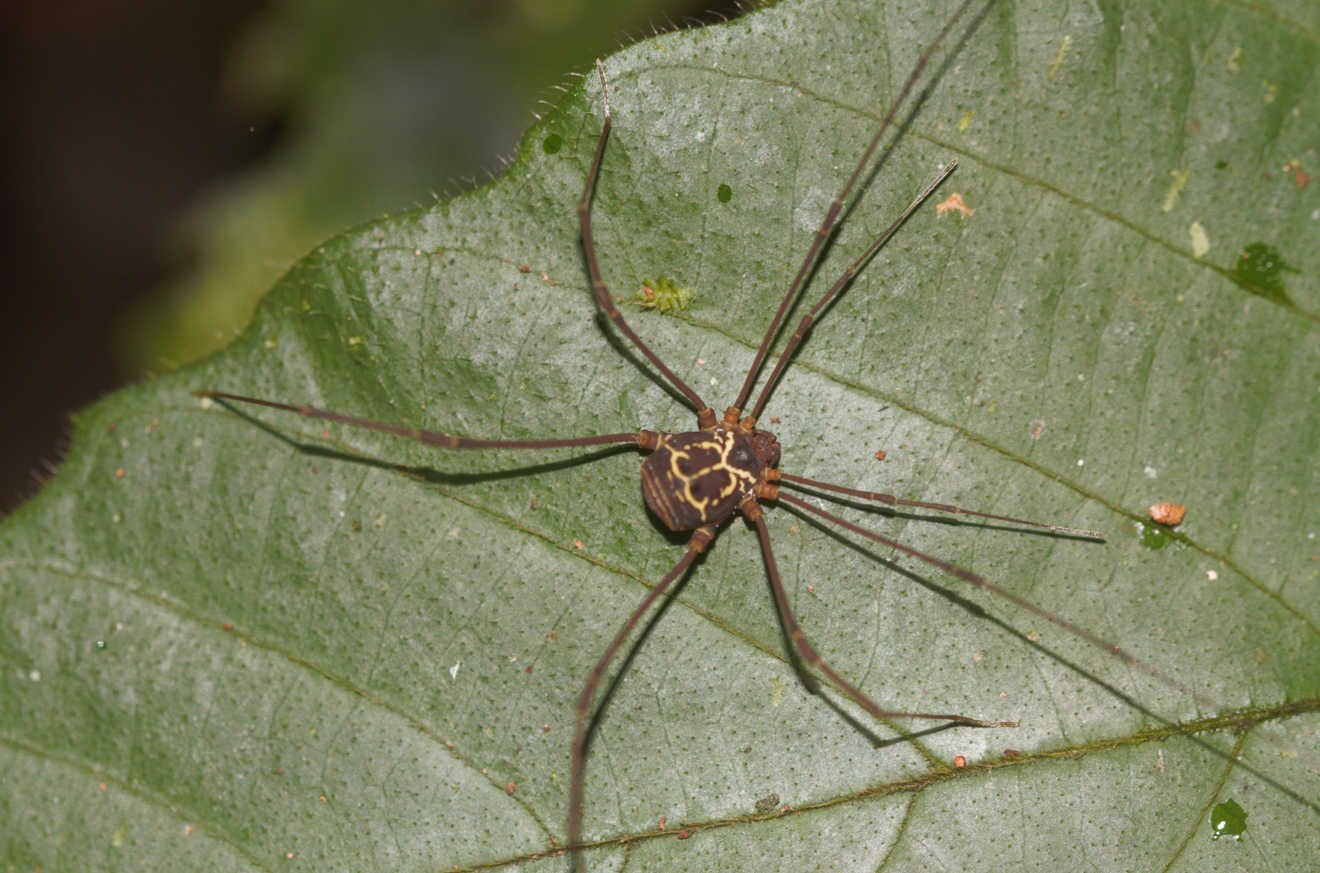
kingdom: Animalia
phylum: Arthropoda
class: Arachnida
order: Opiliones
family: Cosmetidae
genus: Paecilaema
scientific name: Paecilaema curvipes
